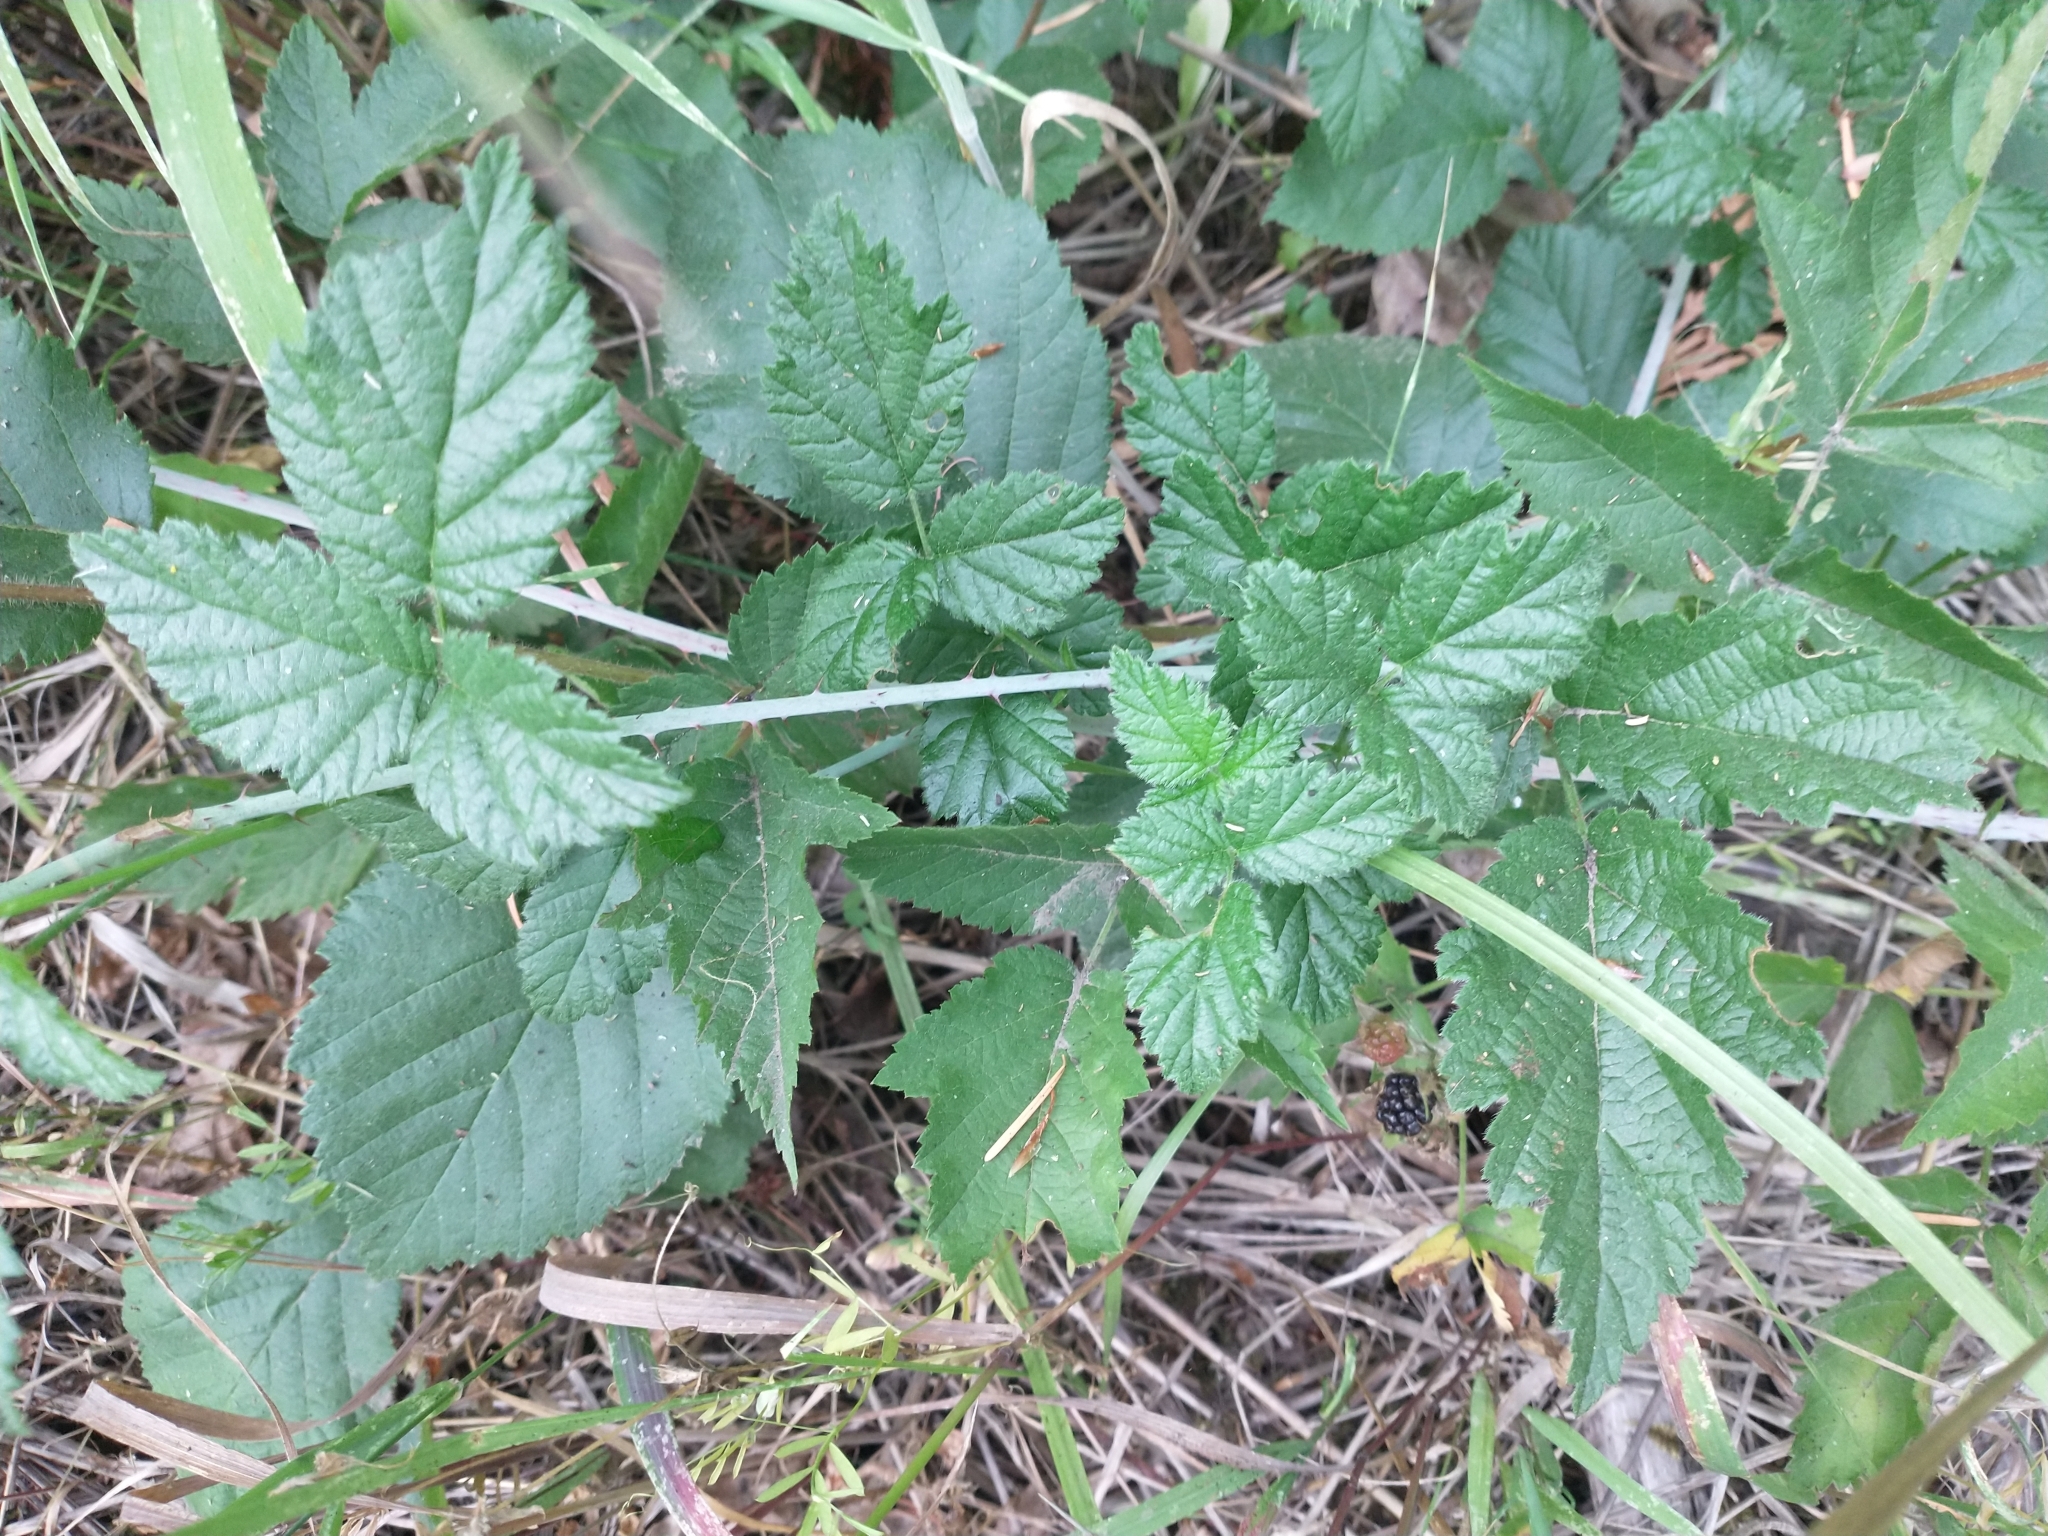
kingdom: Plantae
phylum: Tracheophyta
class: Magnoliopsida
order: Rosales
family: Rosaceae
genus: Rubus
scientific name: Rubus ursinus
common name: Pacific blackberry
